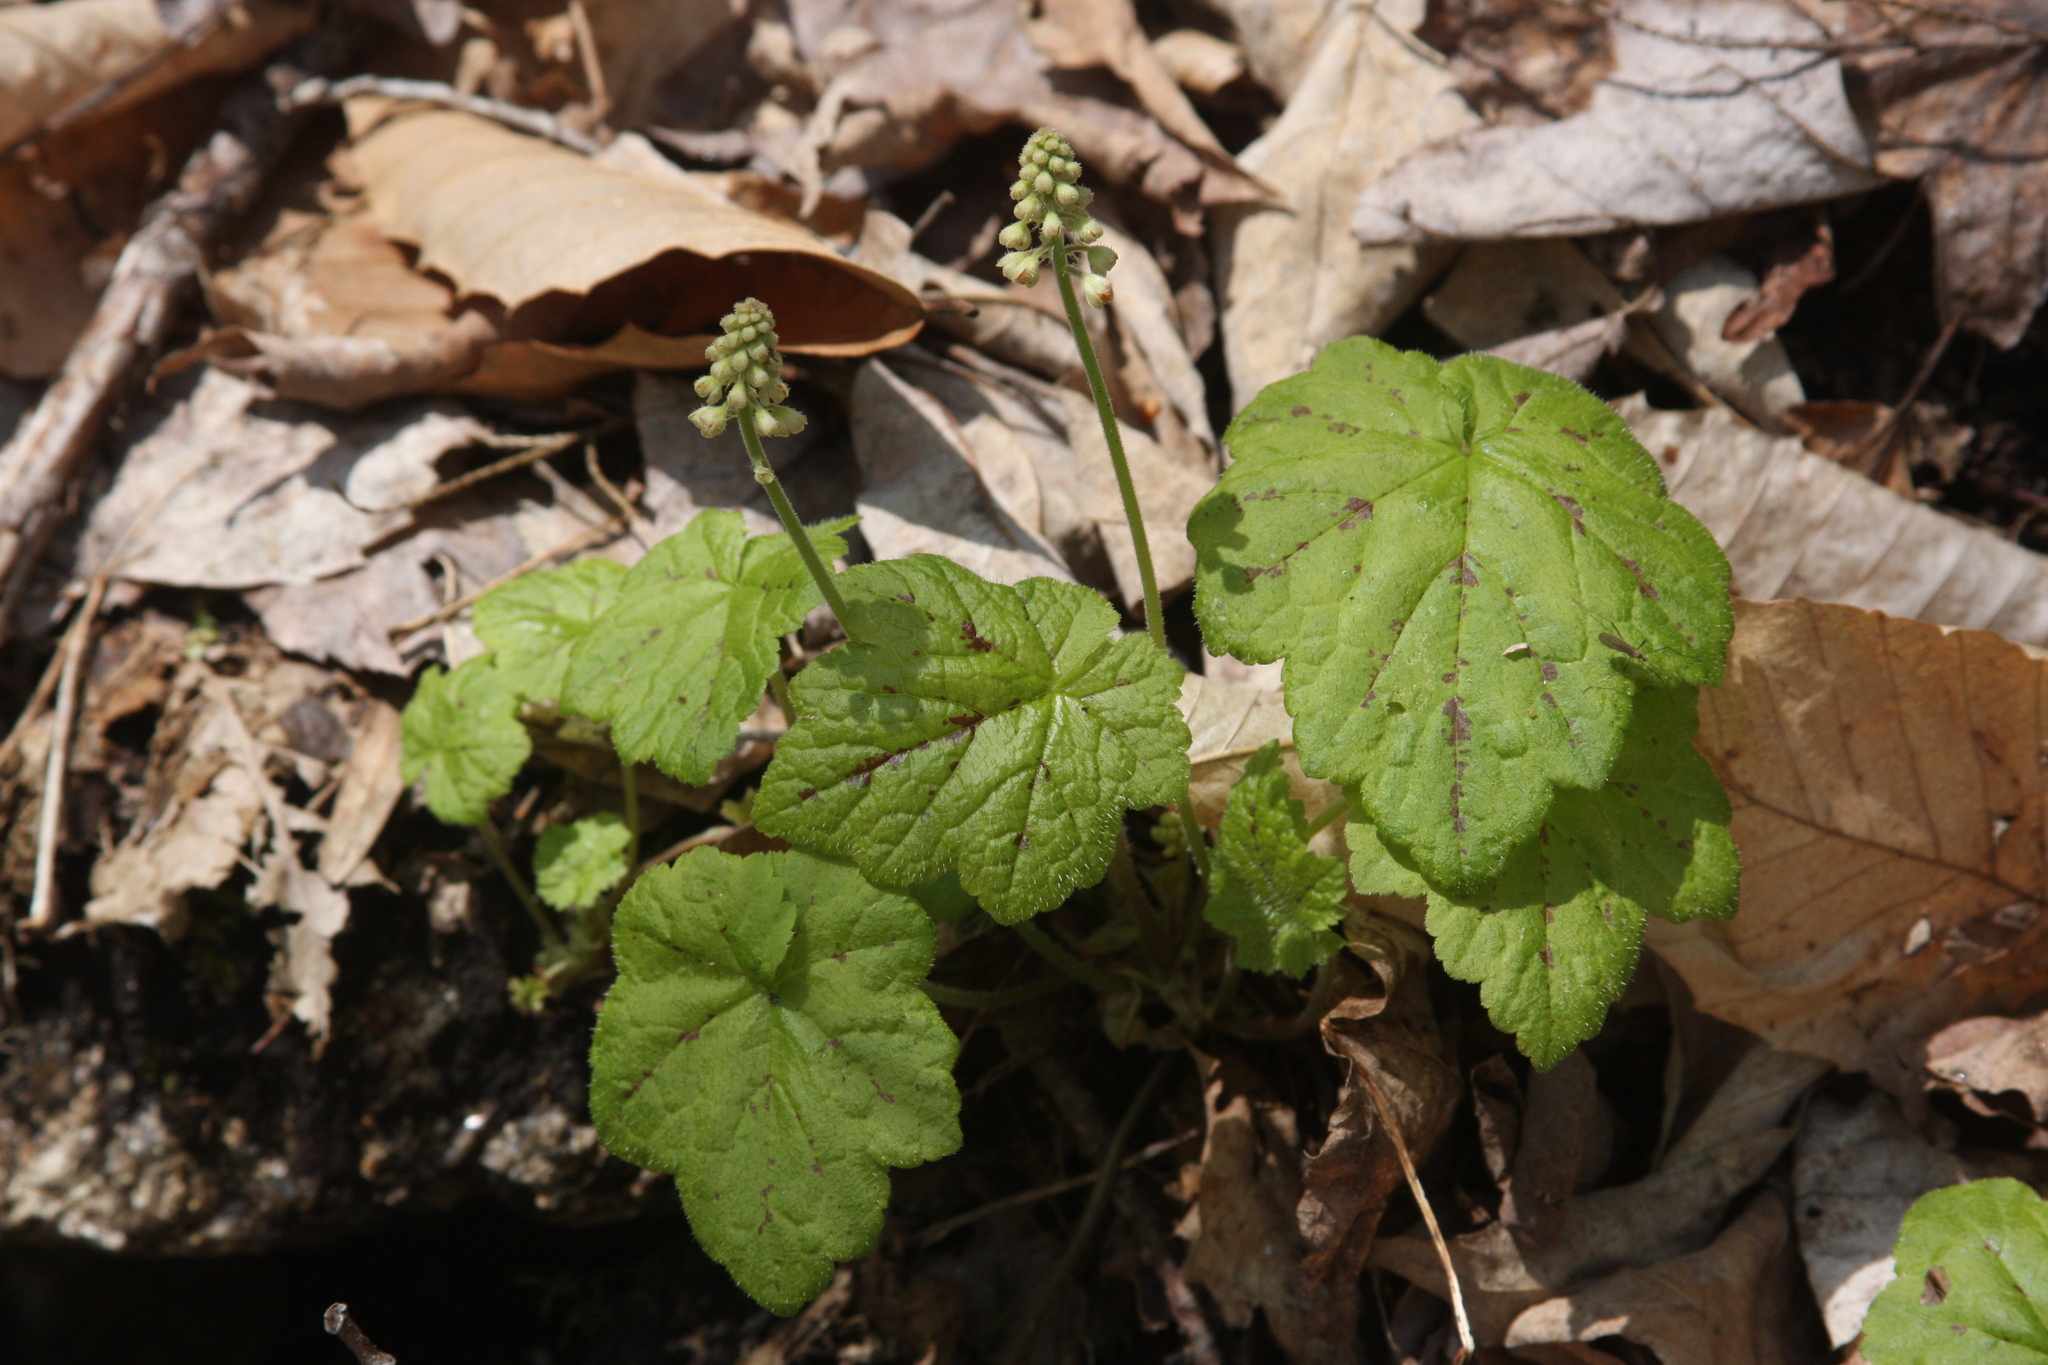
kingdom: Plantae
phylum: Tracheophyta
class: Magnoliopsida
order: Saxifragales
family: Saxifragaceae
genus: Tiarella
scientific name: Tiarella stolonifera
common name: Stoloniferous foamflower
